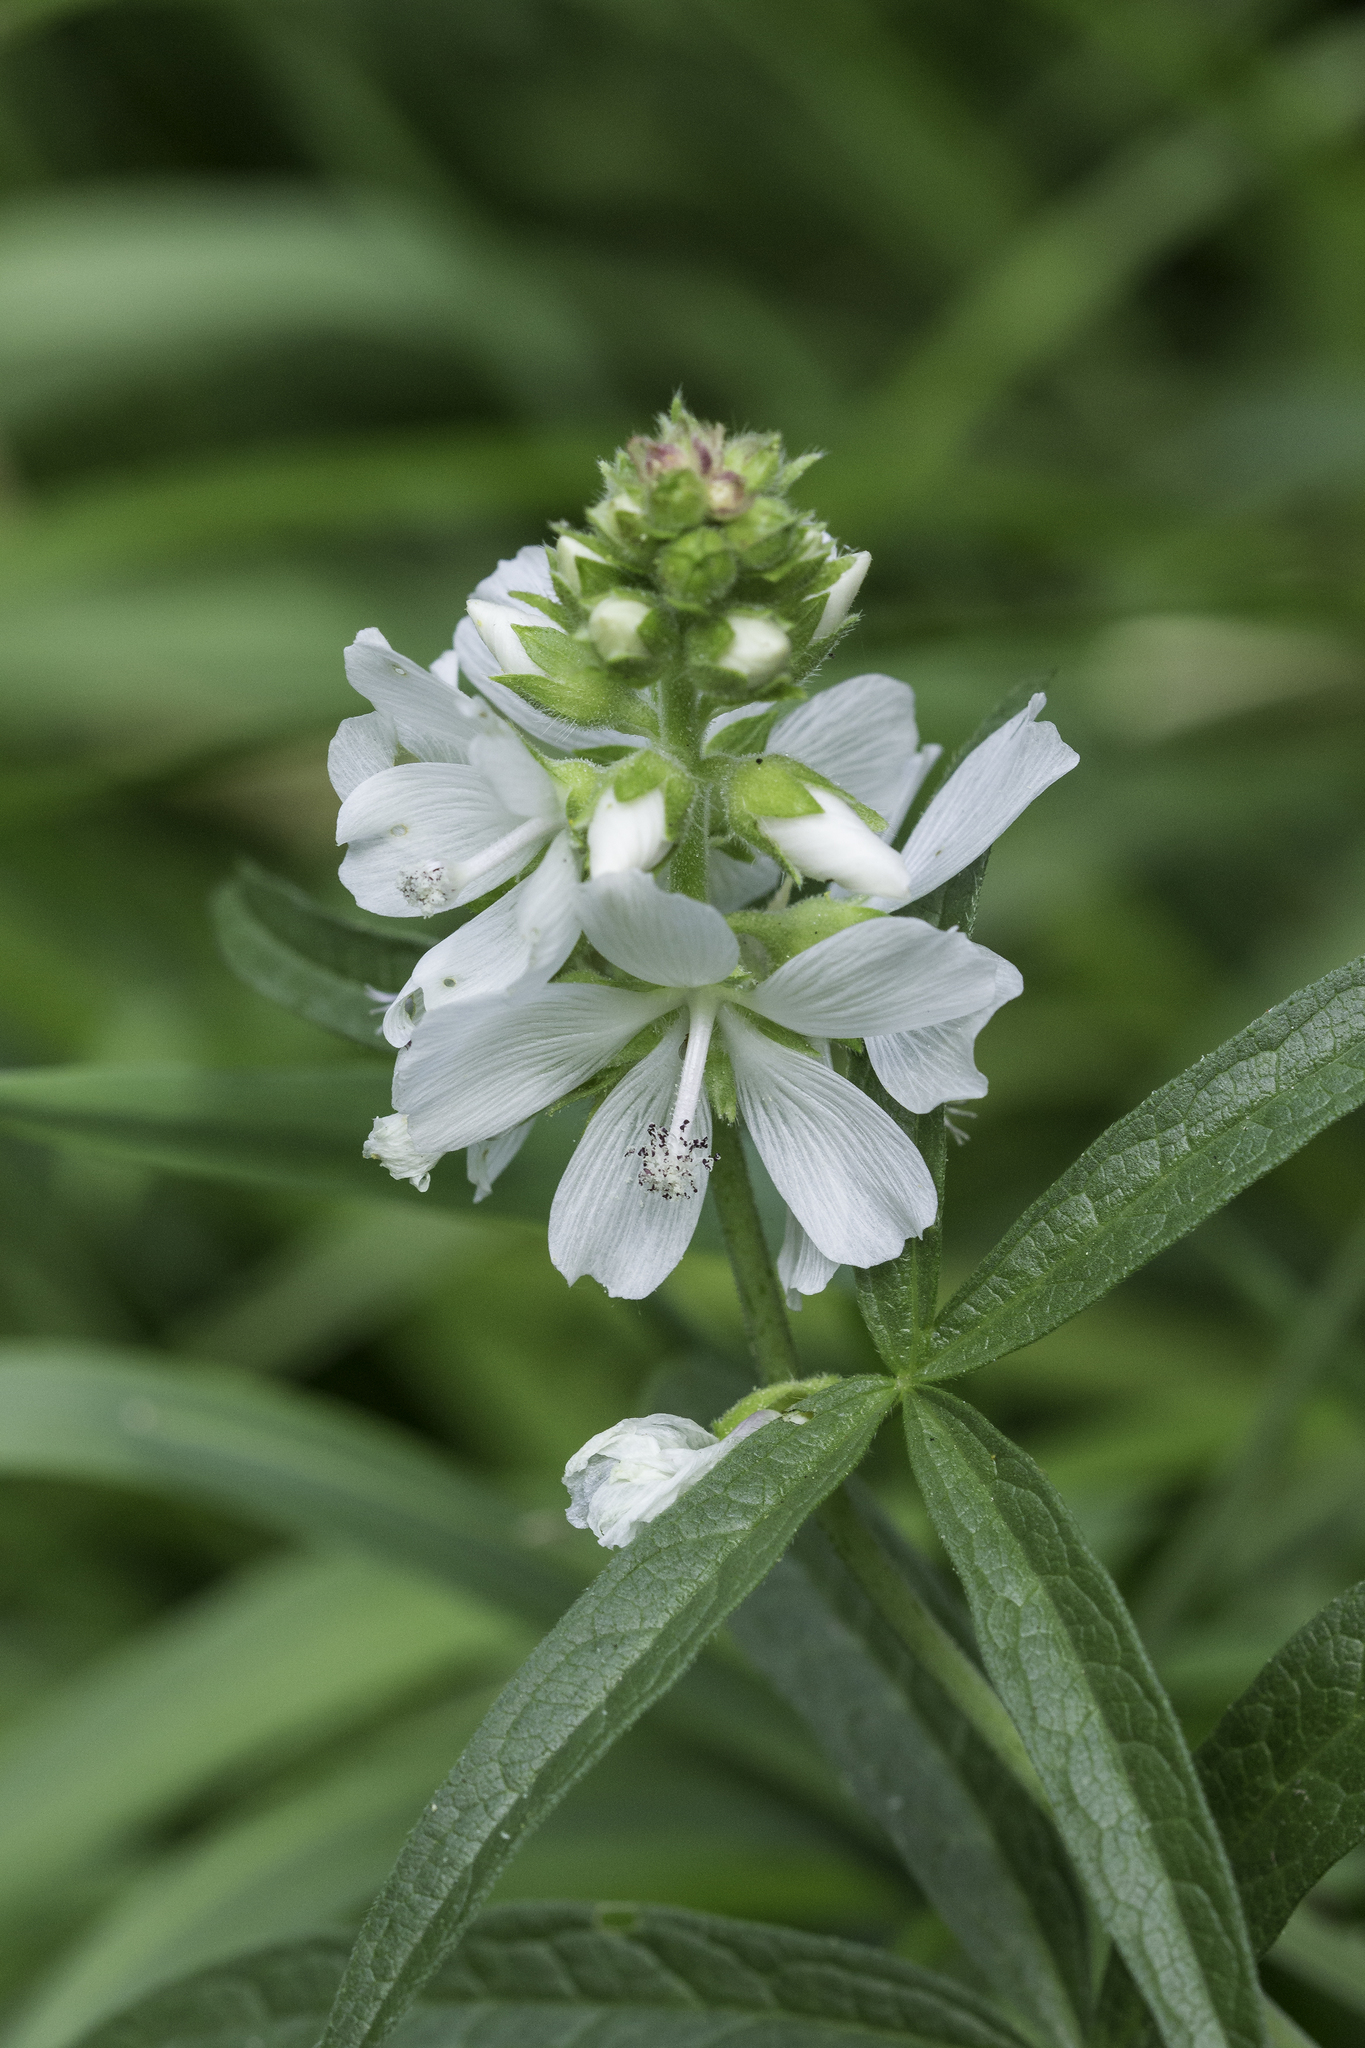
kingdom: Plantae
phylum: Tracheophyta
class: Magnoliopsida
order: Malvales
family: Malvaceae
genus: Sidalcea
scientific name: Sidalcea candida
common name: Prairie-mallow
